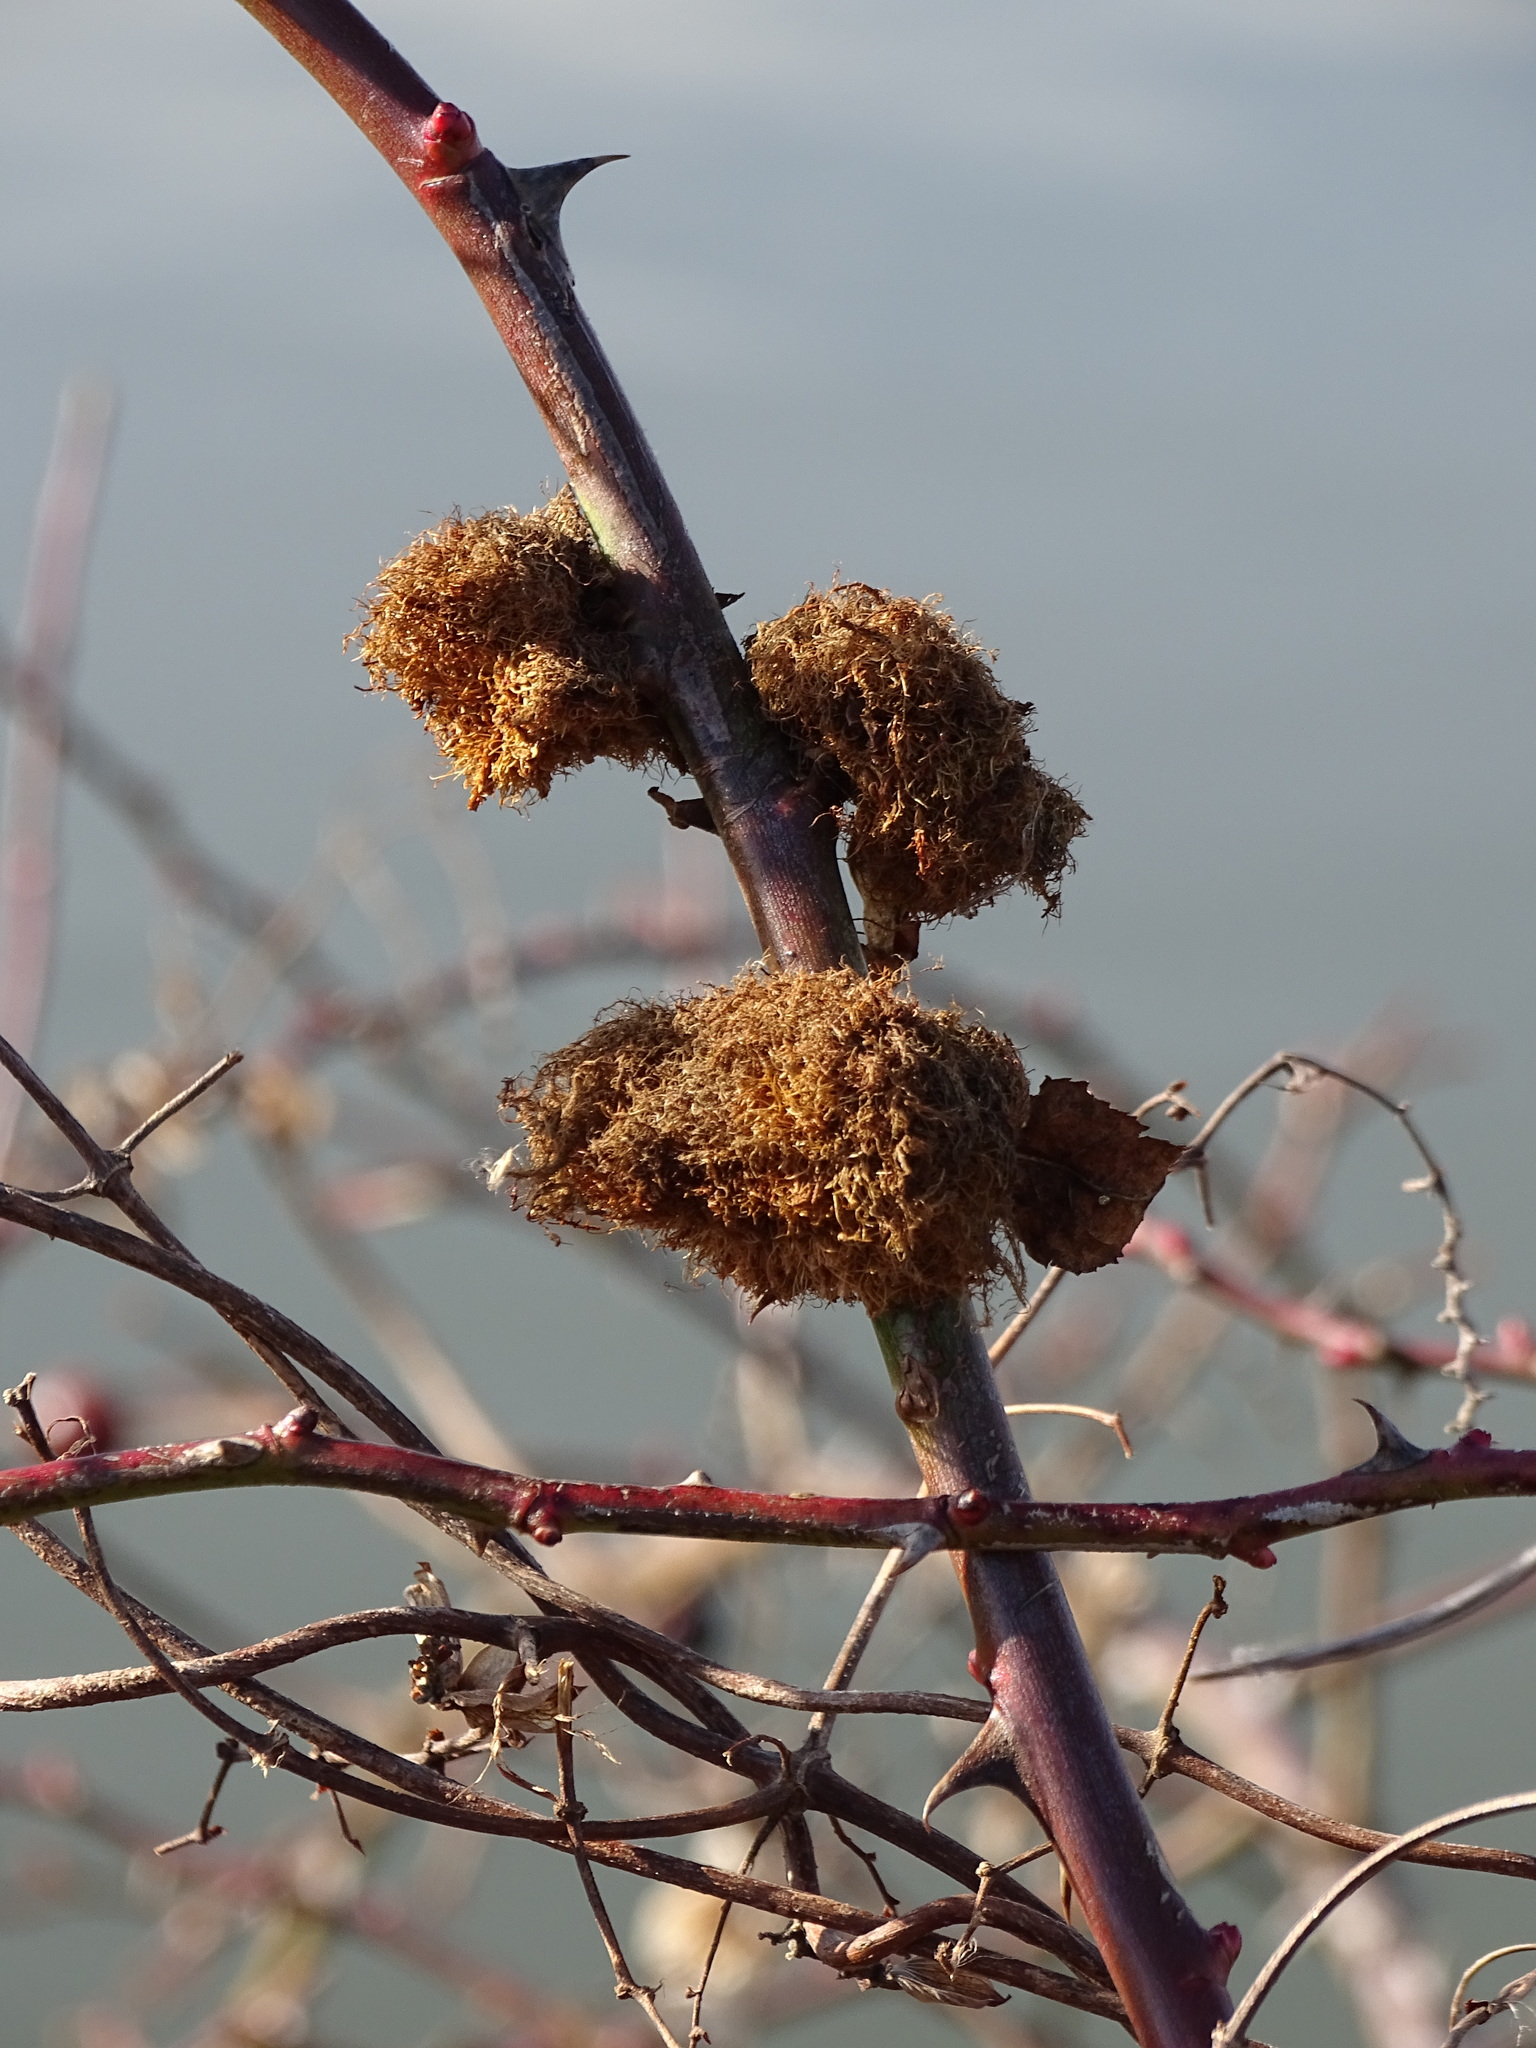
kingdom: Animalia
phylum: Arthropoda
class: Insecta
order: Hymenoptera
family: Cynipidae
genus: Diplolepis
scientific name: Diplolepis rosae
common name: Bedeguar gall
